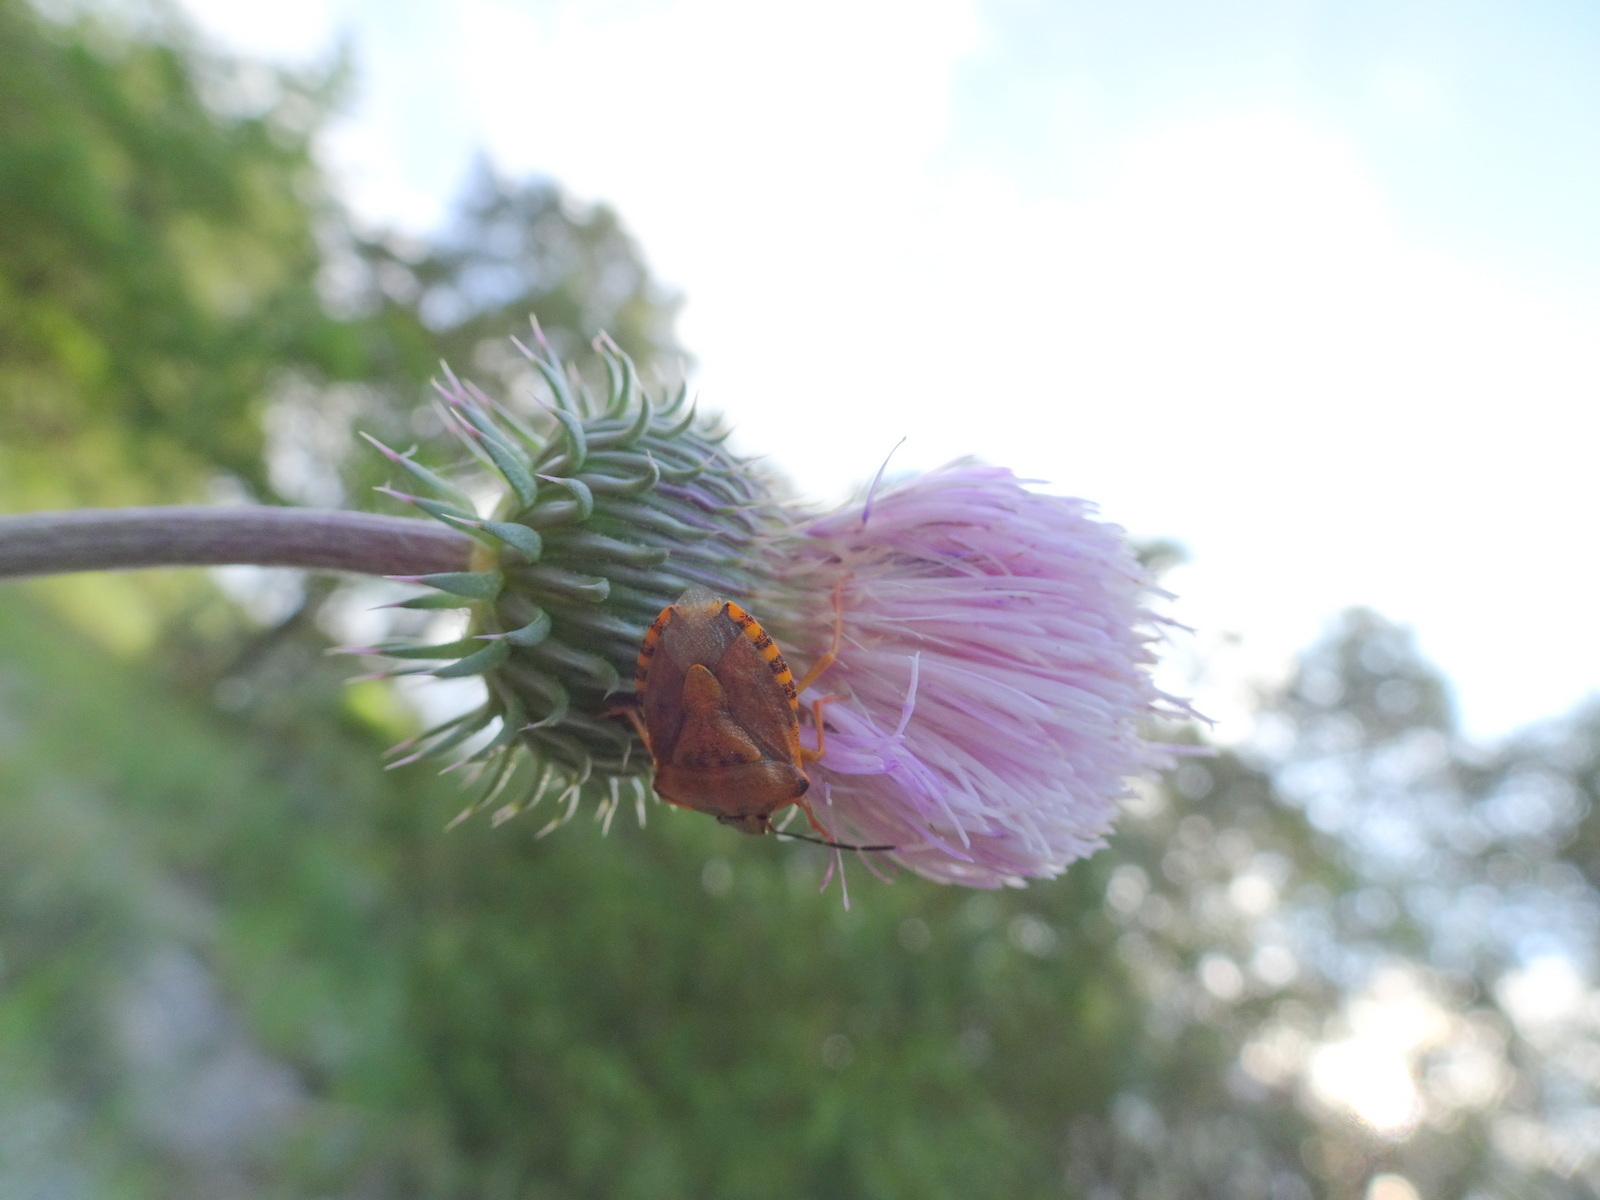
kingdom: Animalia
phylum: Arthropoda
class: Insecta
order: Hemiptera
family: Pentatomidae
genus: Carpocoris
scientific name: Carpocoris purpureipennis
